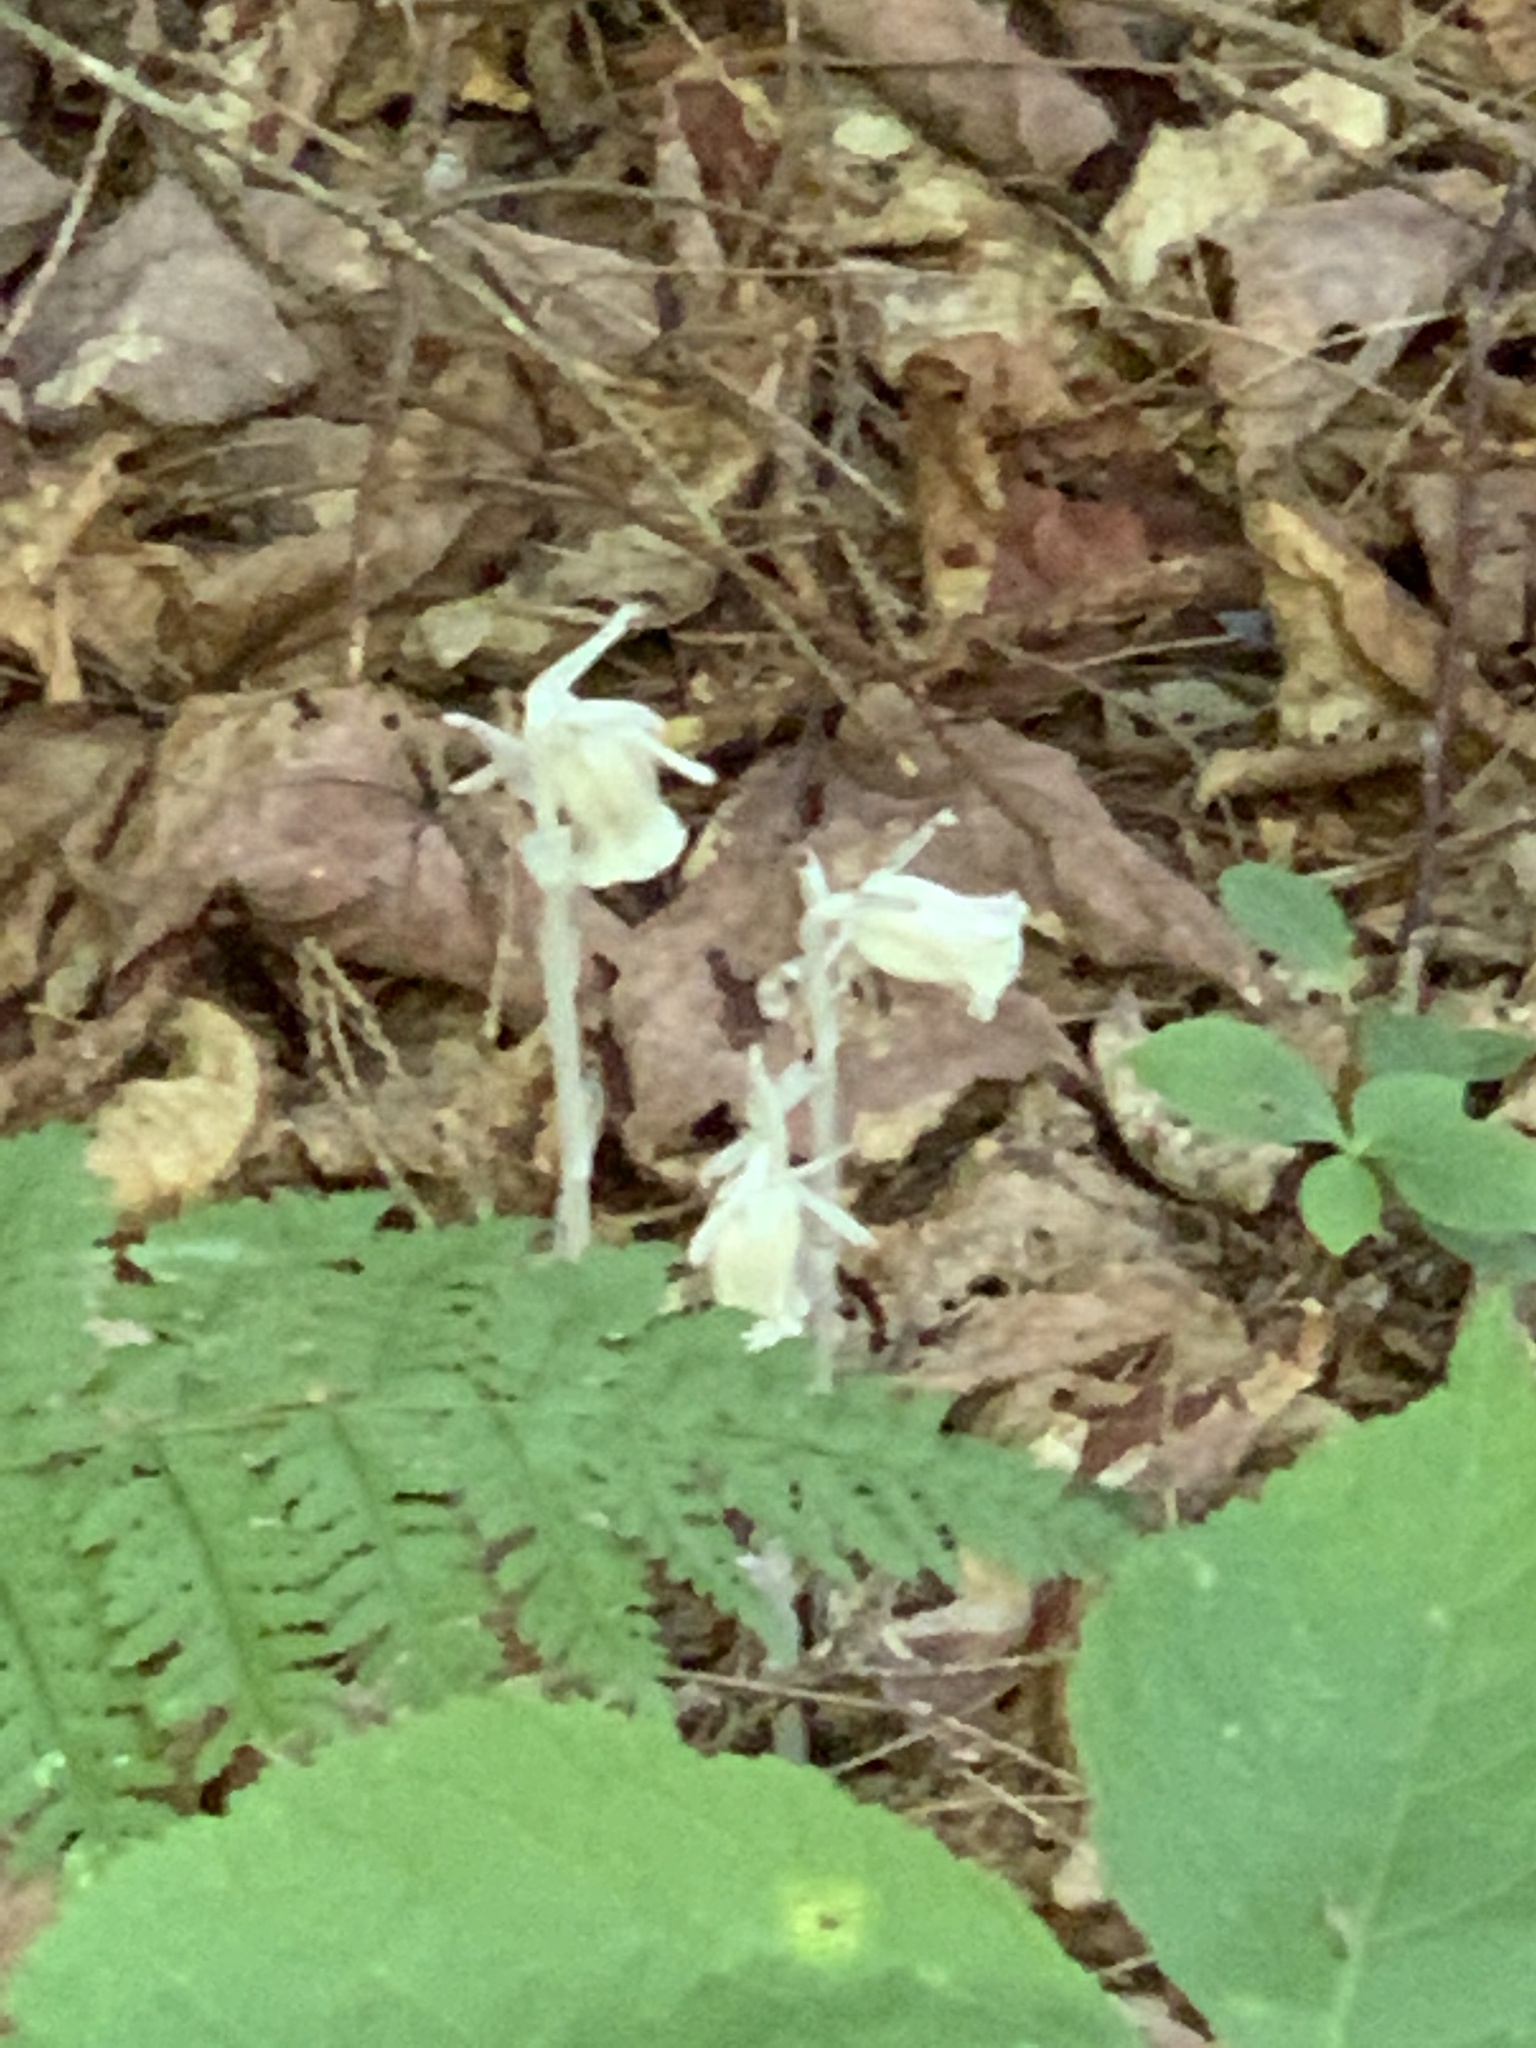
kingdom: Plantae
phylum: Tracheophyta
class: Magnoliopsida
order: Ericales
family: Ericaceae
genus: Monotropa
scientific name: Monotropa uniflora
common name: Convulsion root
